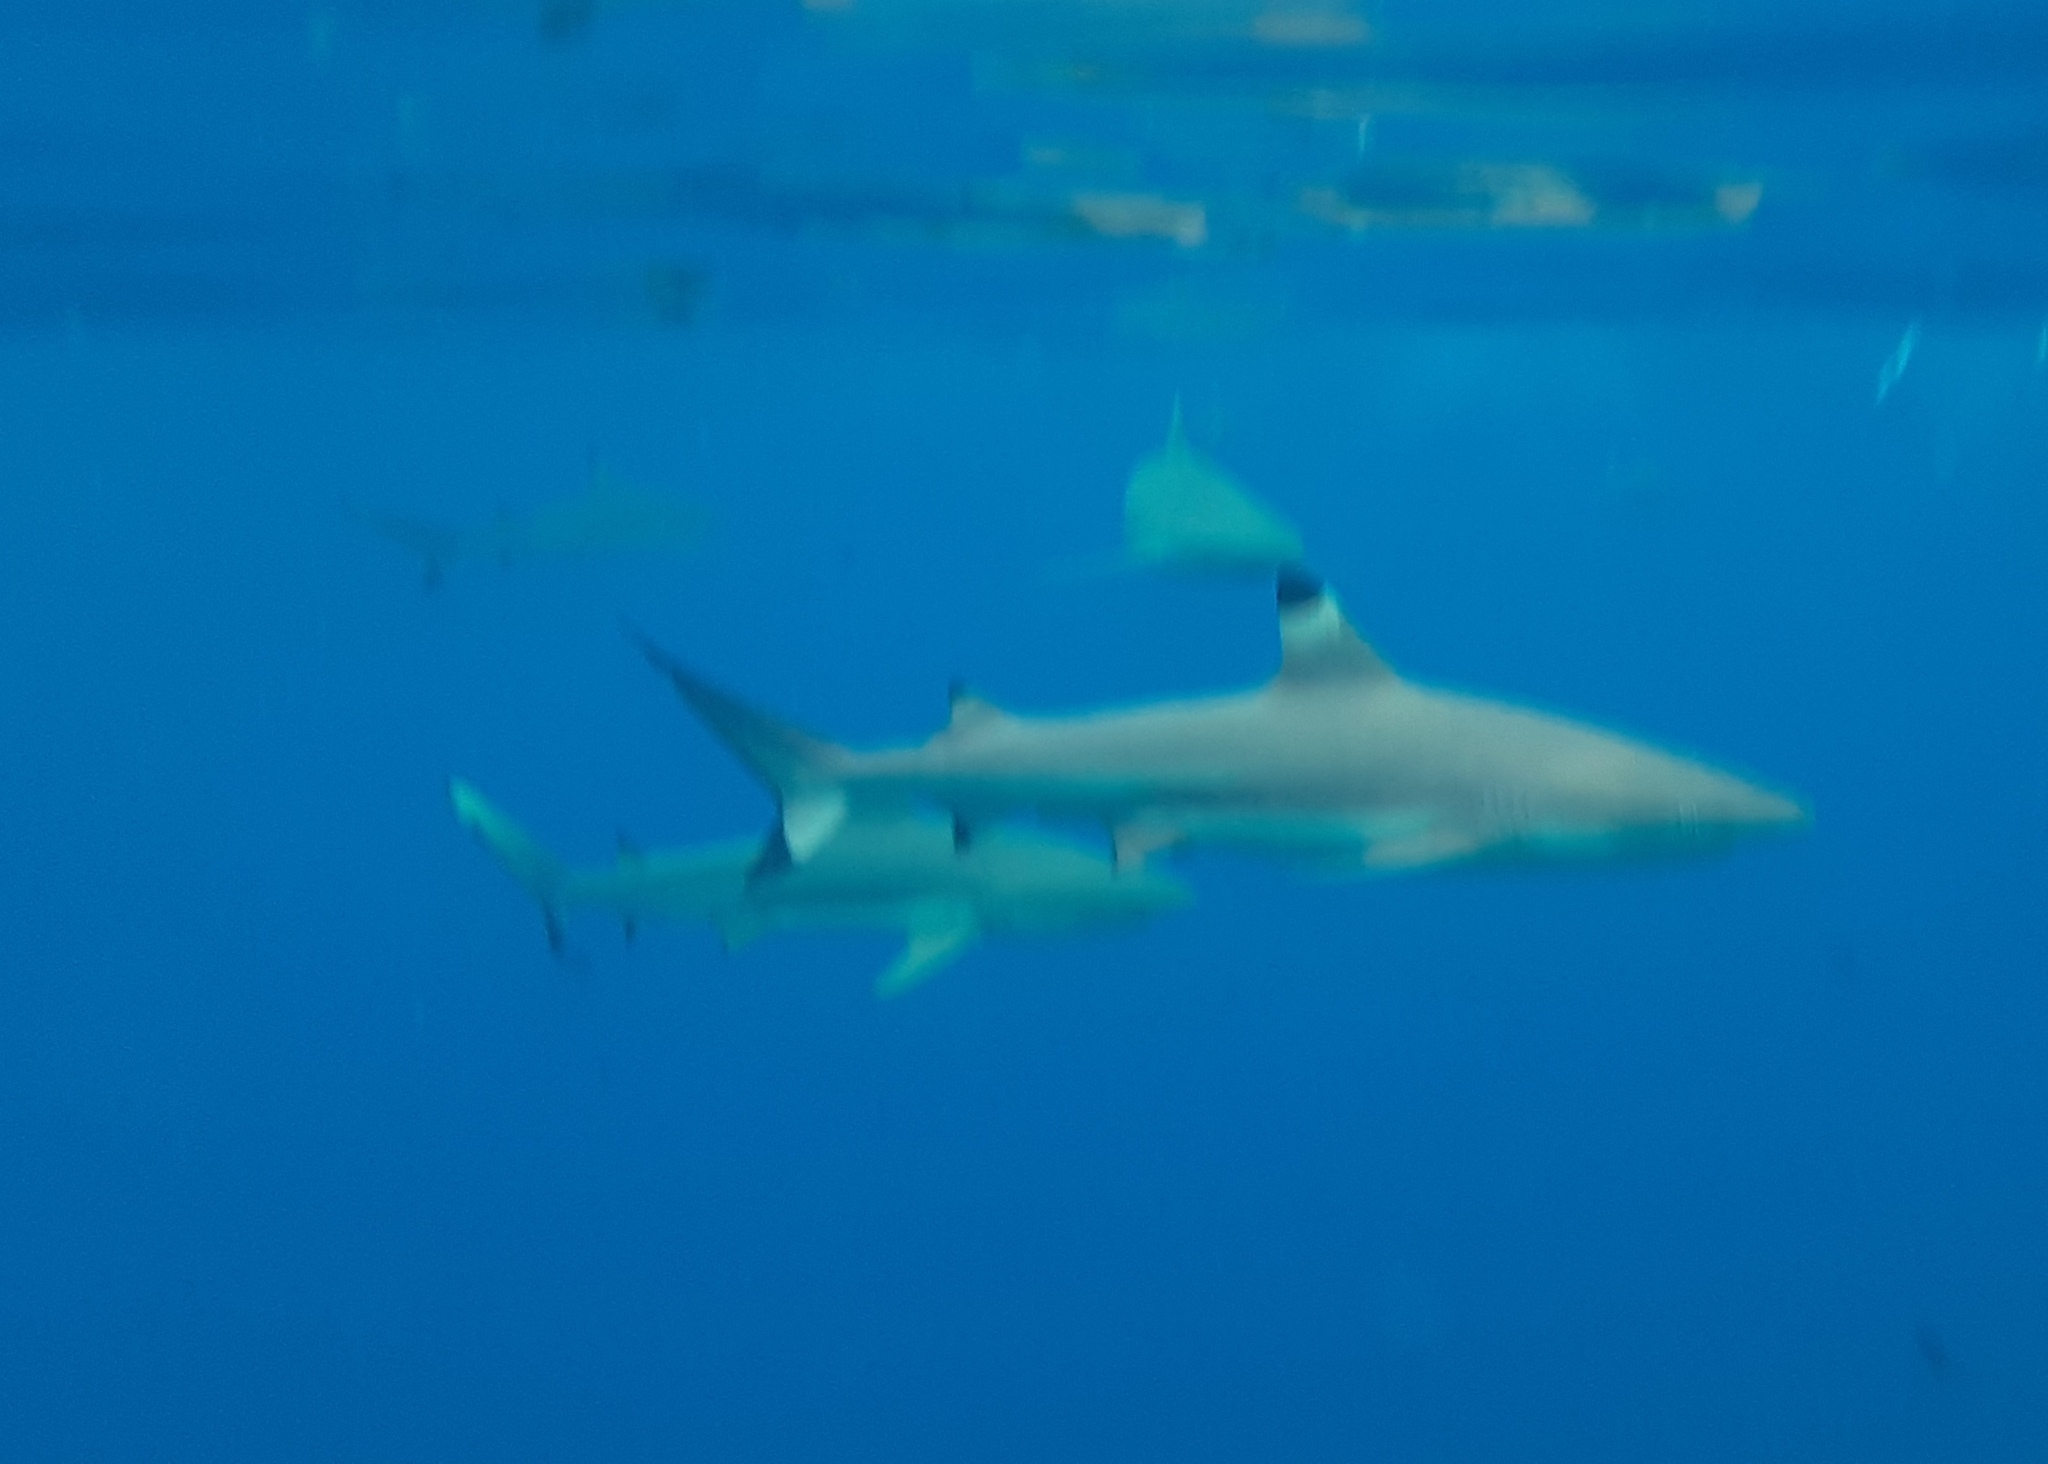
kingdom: Animalia
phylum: Chordata
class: Elasmobranchii
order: Carcharhiniformes
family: Carcharhinidae
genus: Carcharhinus
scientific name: Carcharhinus melanopterus
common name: Blacktip reef shark
